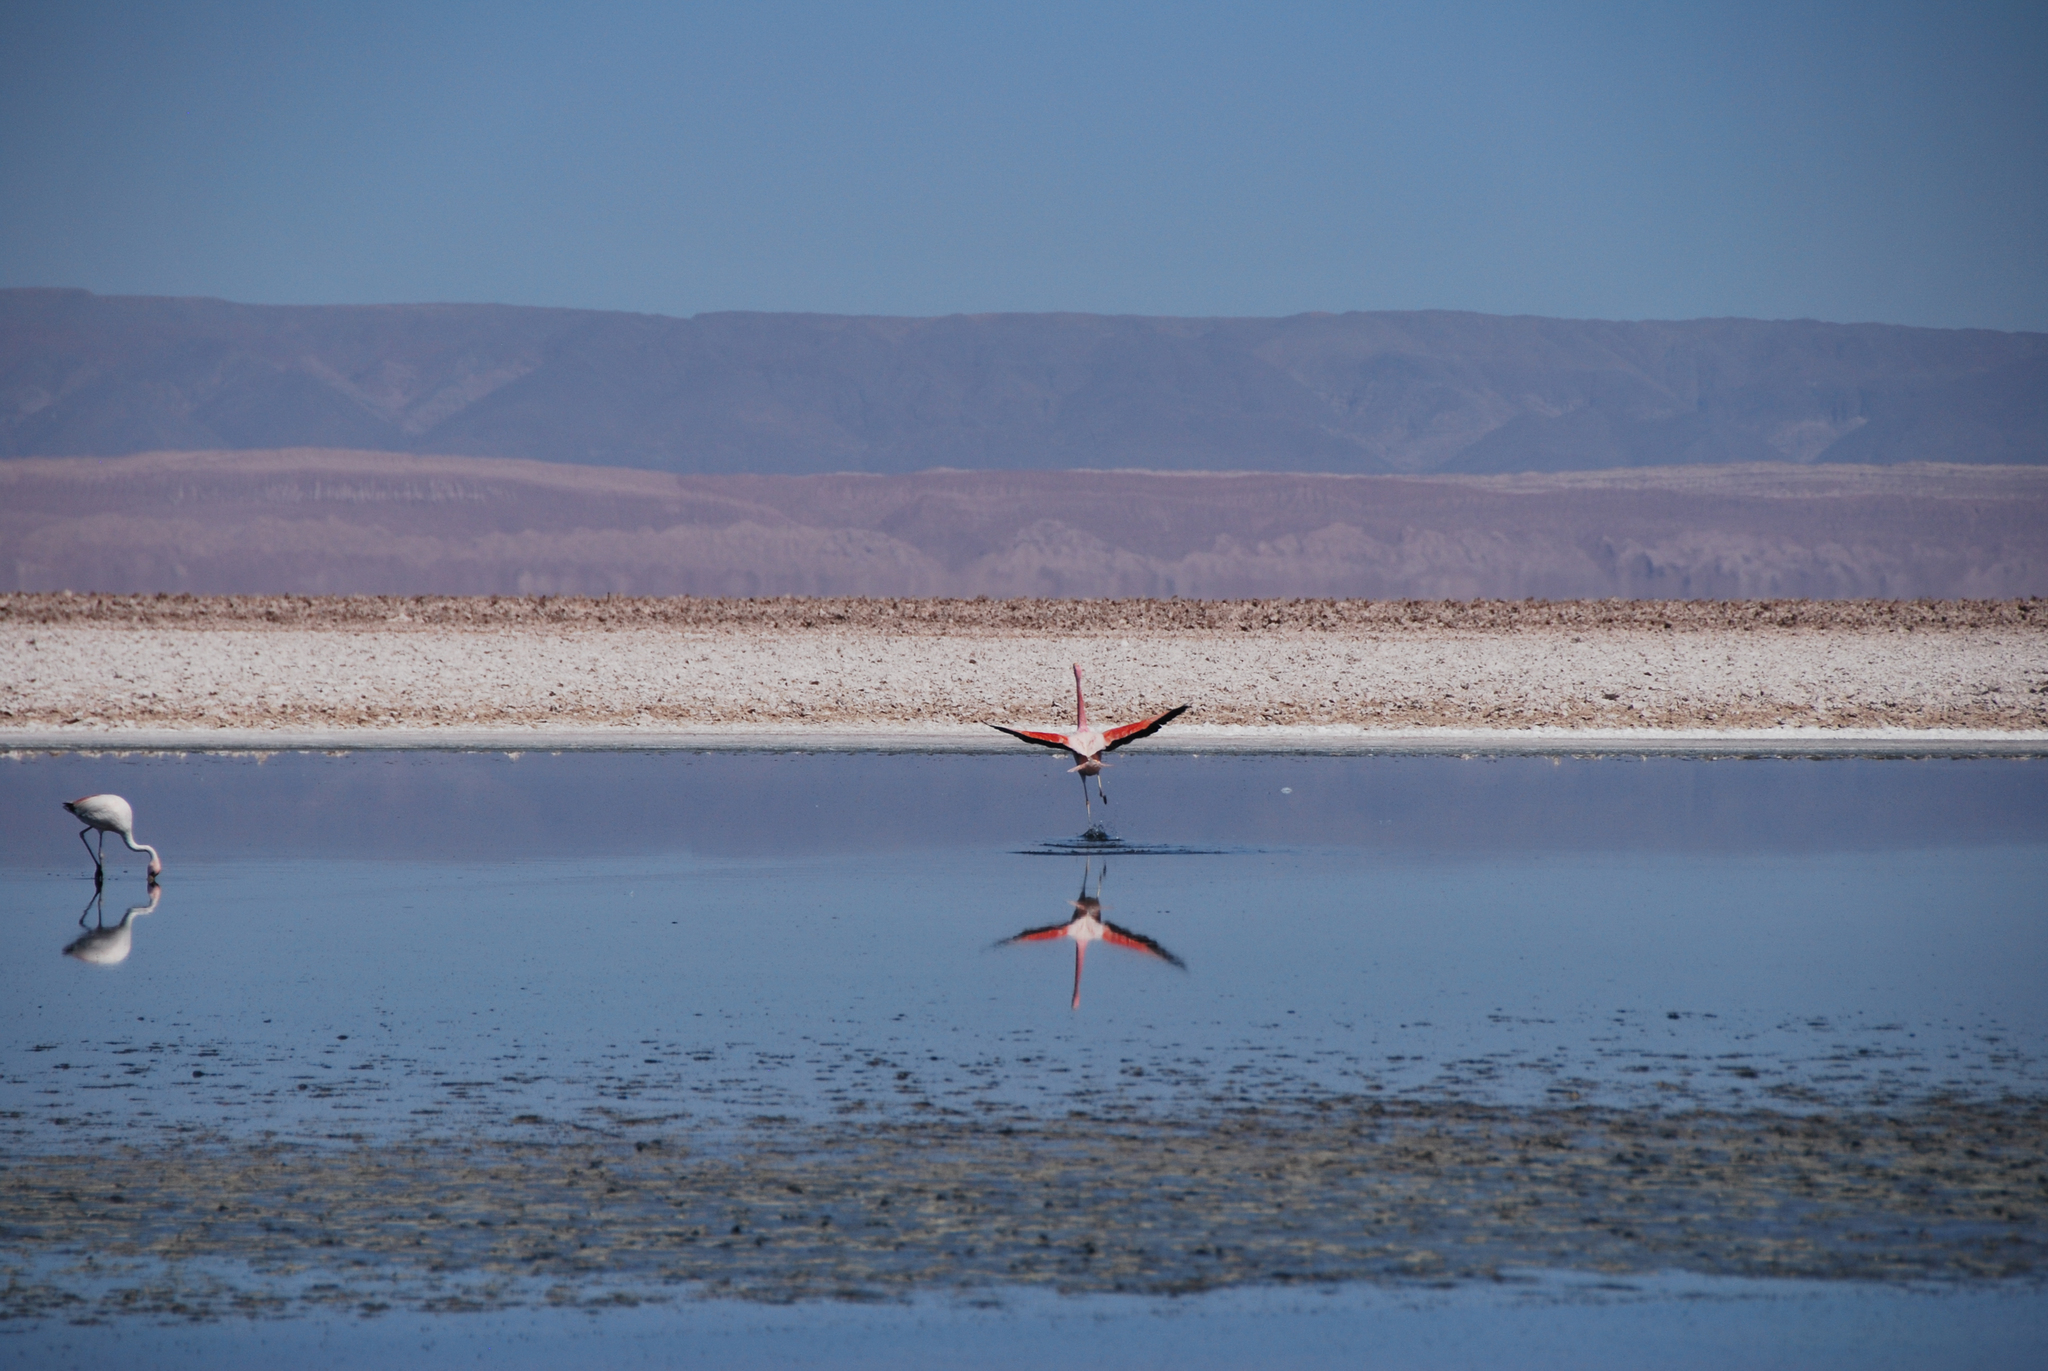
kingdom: Animalia
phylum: Chordata
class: Aves
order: Phoenicopteriformes
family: Phoenicopteridae
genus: Phoenicoparrus
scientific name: Phoenicoparrus andinus
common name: Andean flamingo
